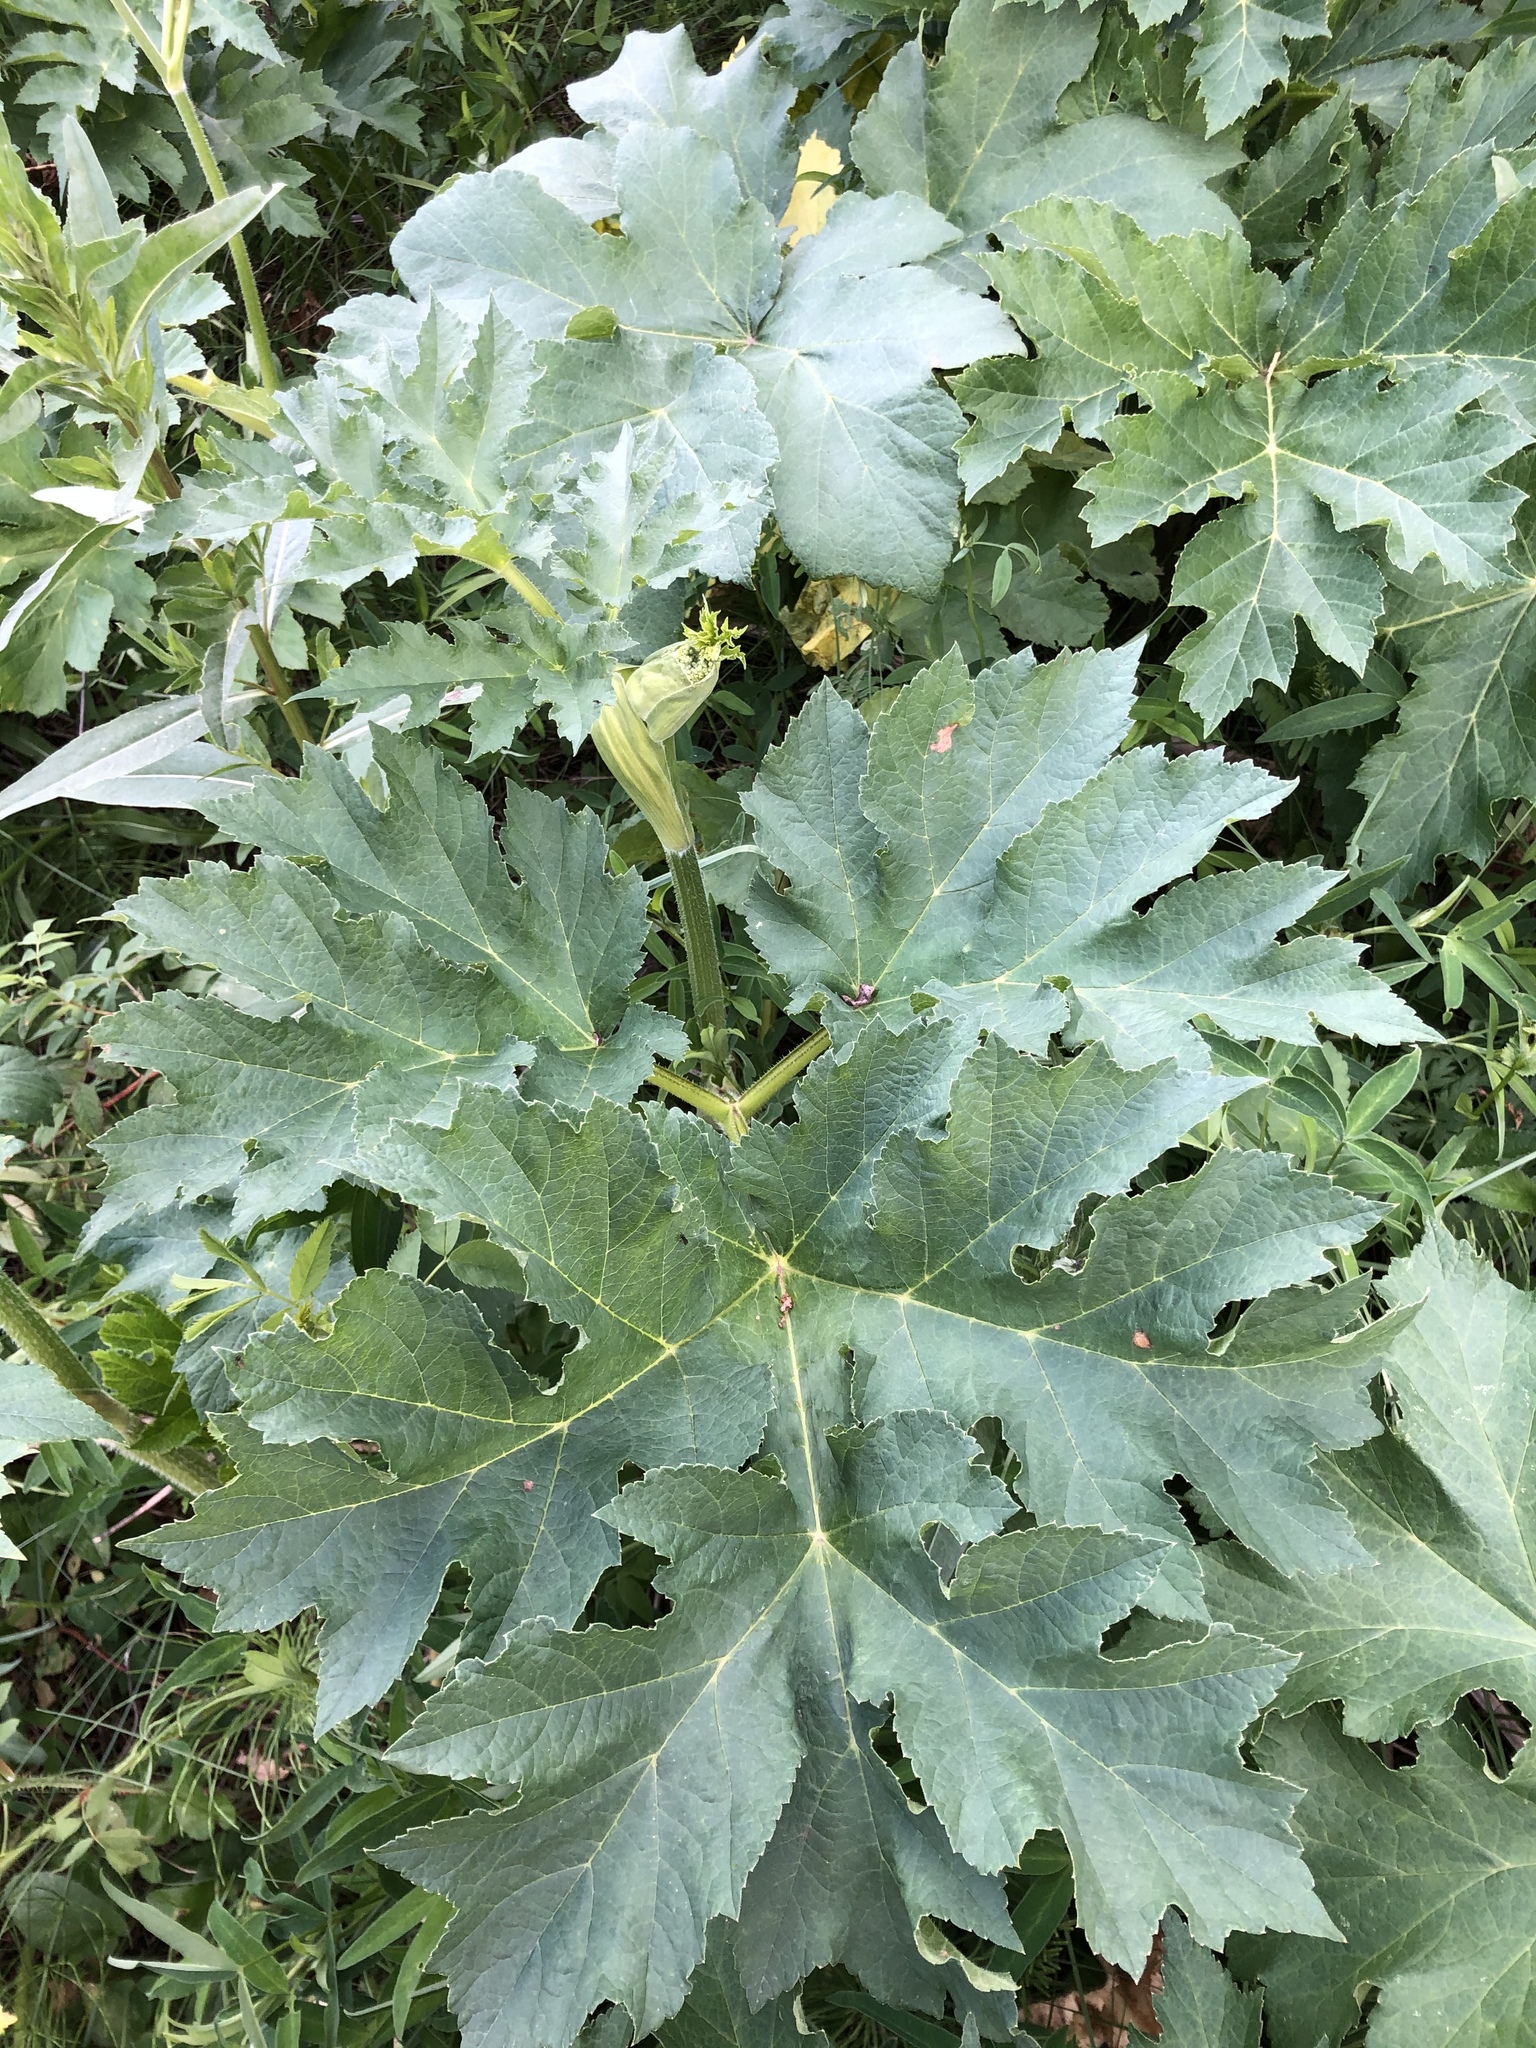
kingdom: Plantae
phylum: Tracheophyta
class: Magnoliopsida
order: Apiales
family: Apiaceae
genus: Heracleum
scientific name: Heracleum sphondylium
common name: Hogweed
